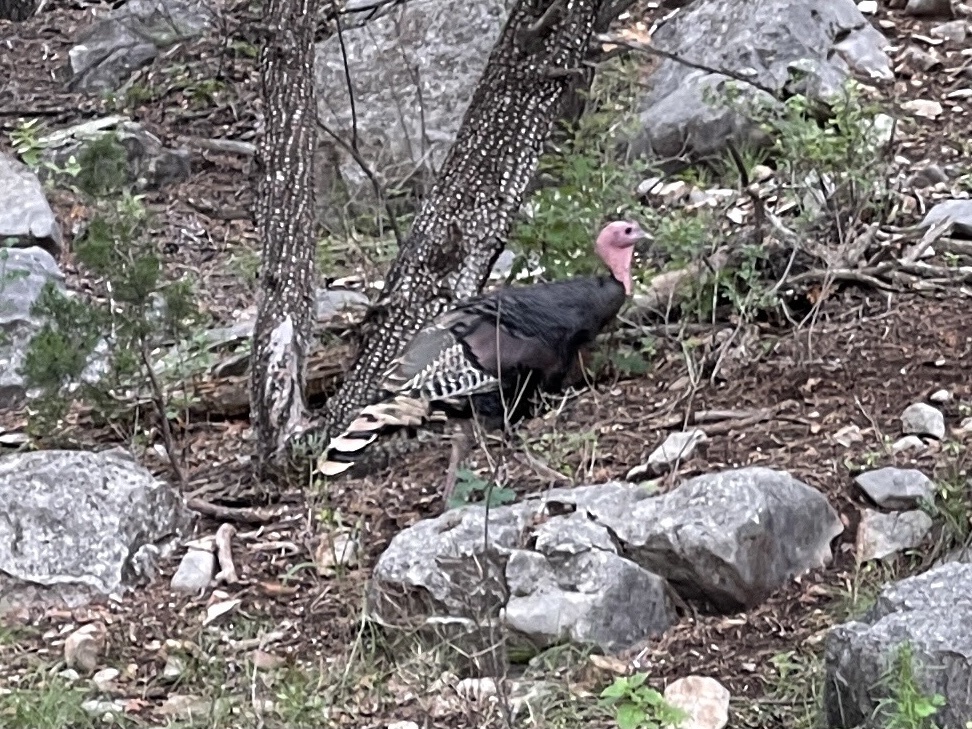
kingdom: Animalia
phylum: Chordata
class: Aves
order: Galliformes
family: Phasianidae
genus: Meleagris
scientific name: Meleagris gallopavo
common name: Wild turkey
